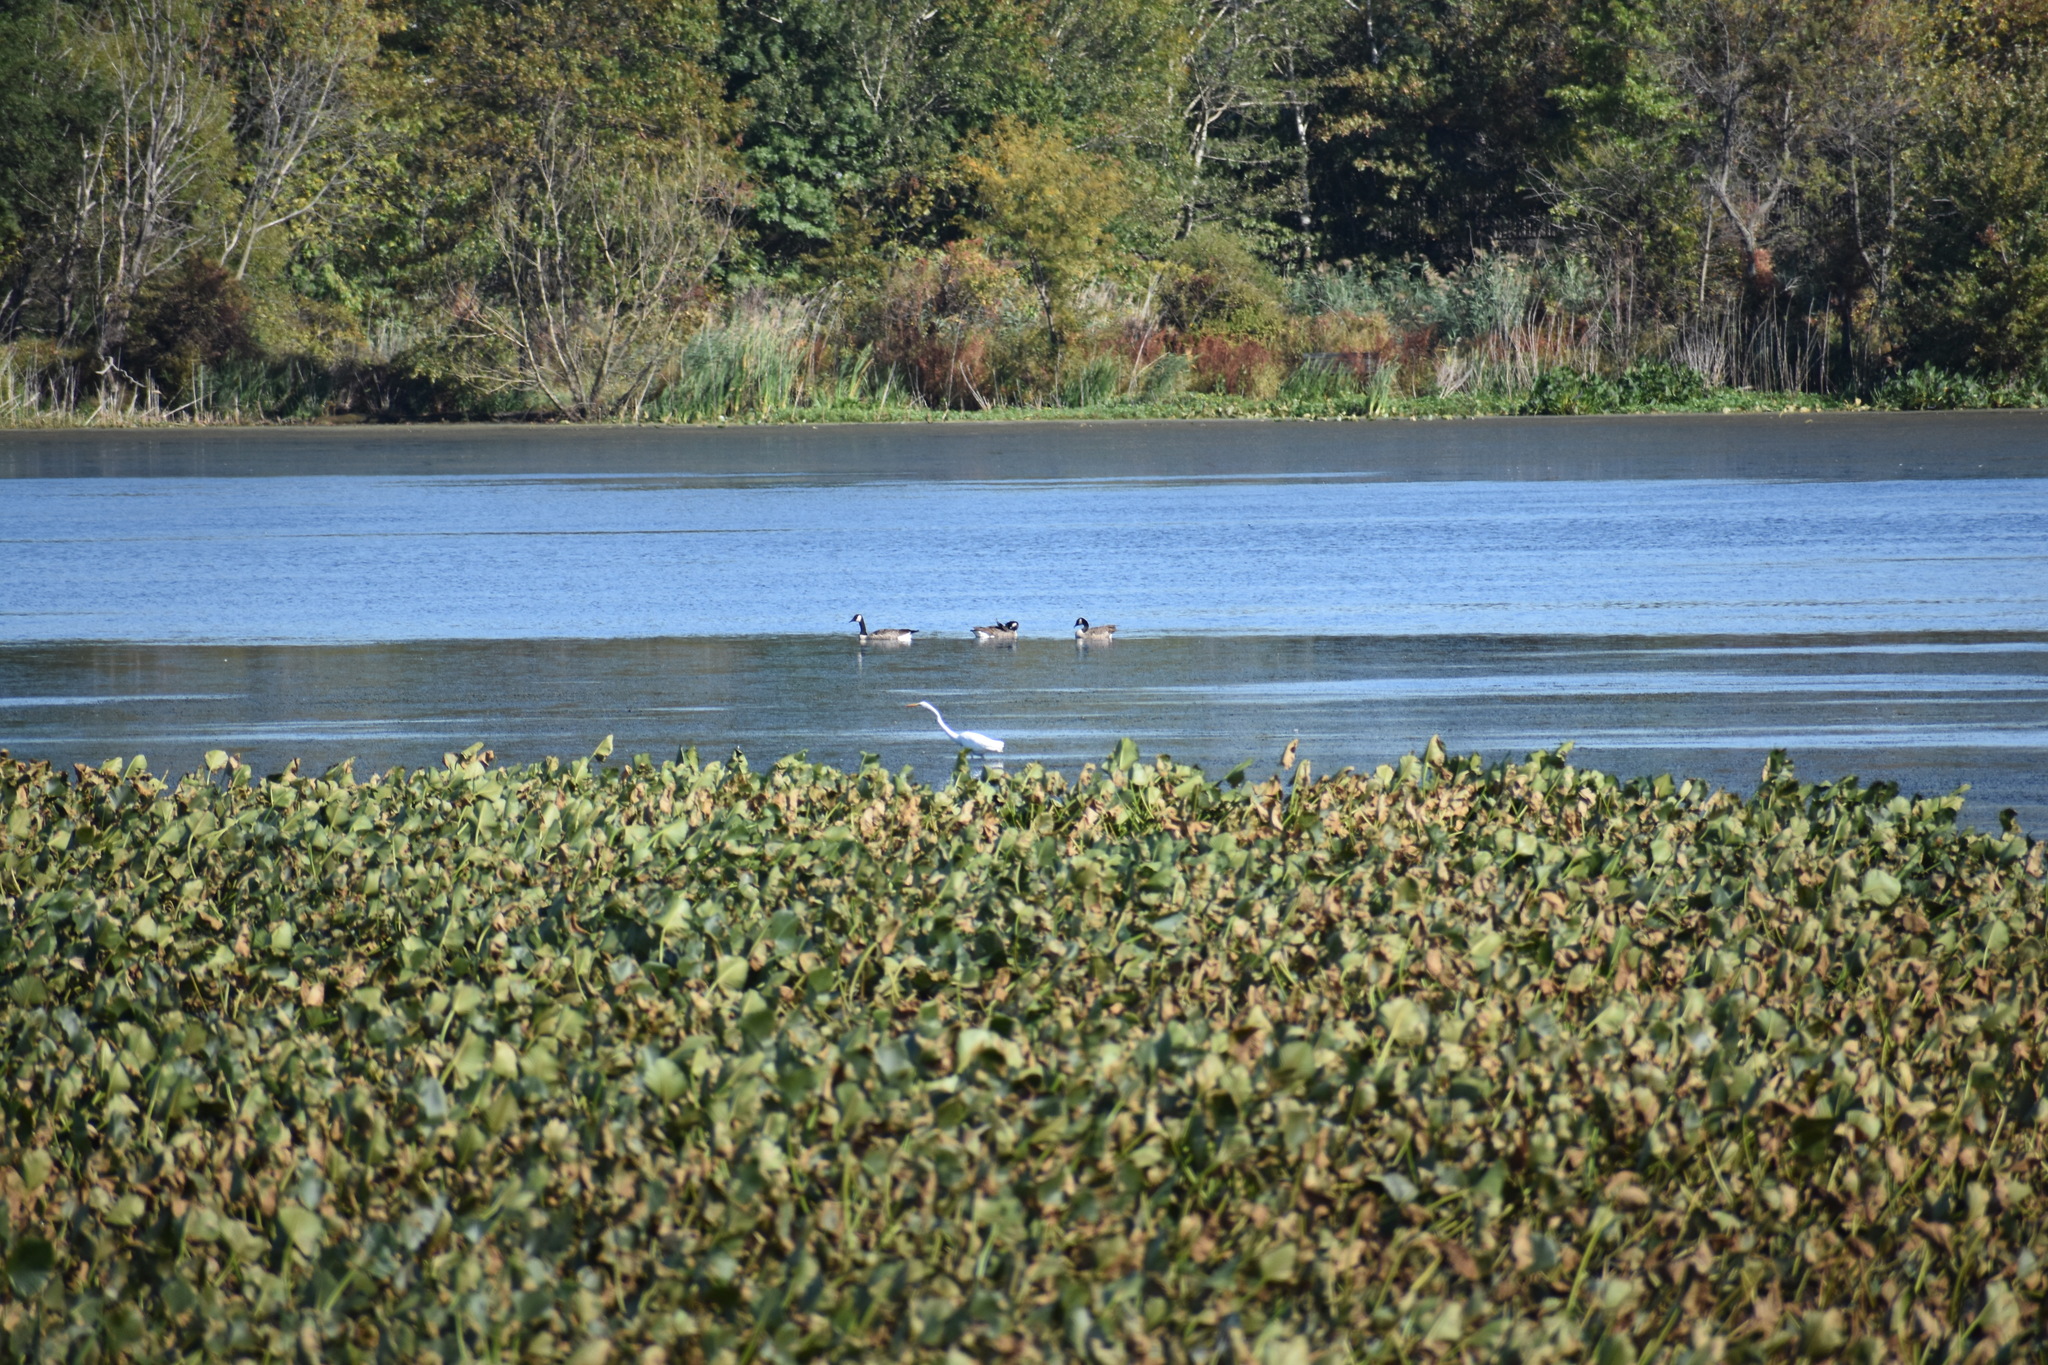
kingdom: Animalia
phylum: Chordata
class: Aves
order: Anseriformes
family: Anatidae
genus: Branta
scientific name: Branta canadensis
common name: Canada goose
